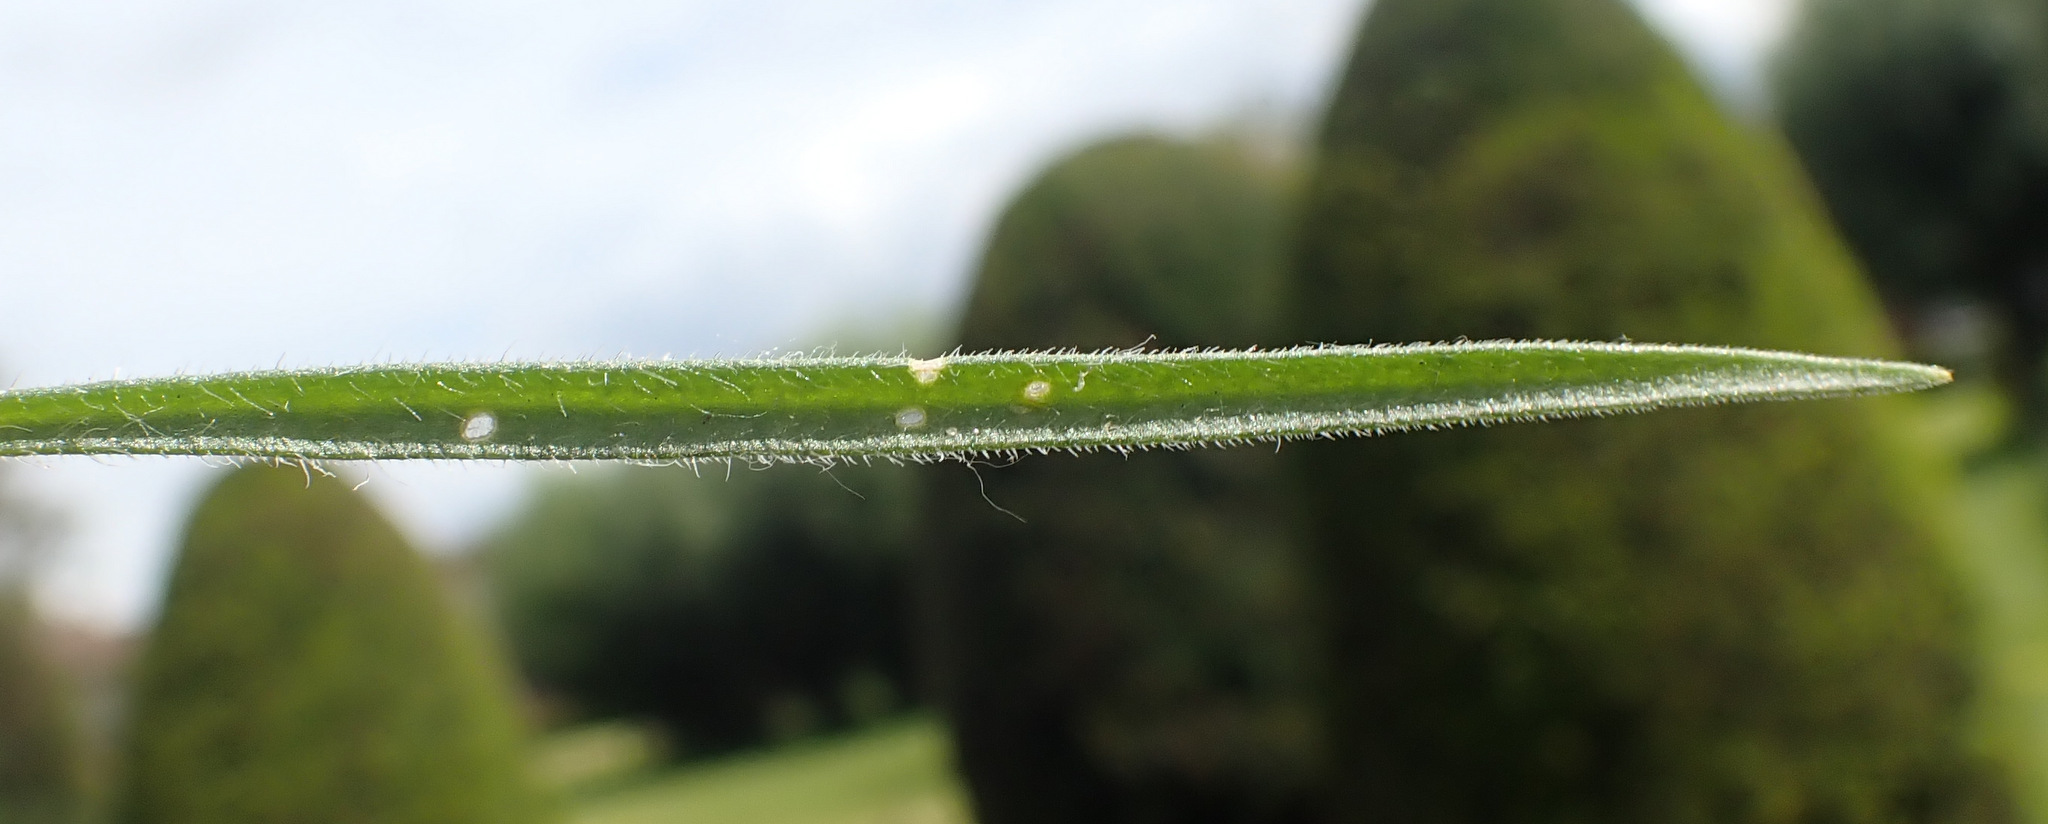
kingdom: Plantae
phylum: Tracheophyta
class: Magnoliopsida
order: Lamiales
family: Plantaginaceae
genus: Plantago
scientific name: Plantago arenaria
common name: Branched plantain
